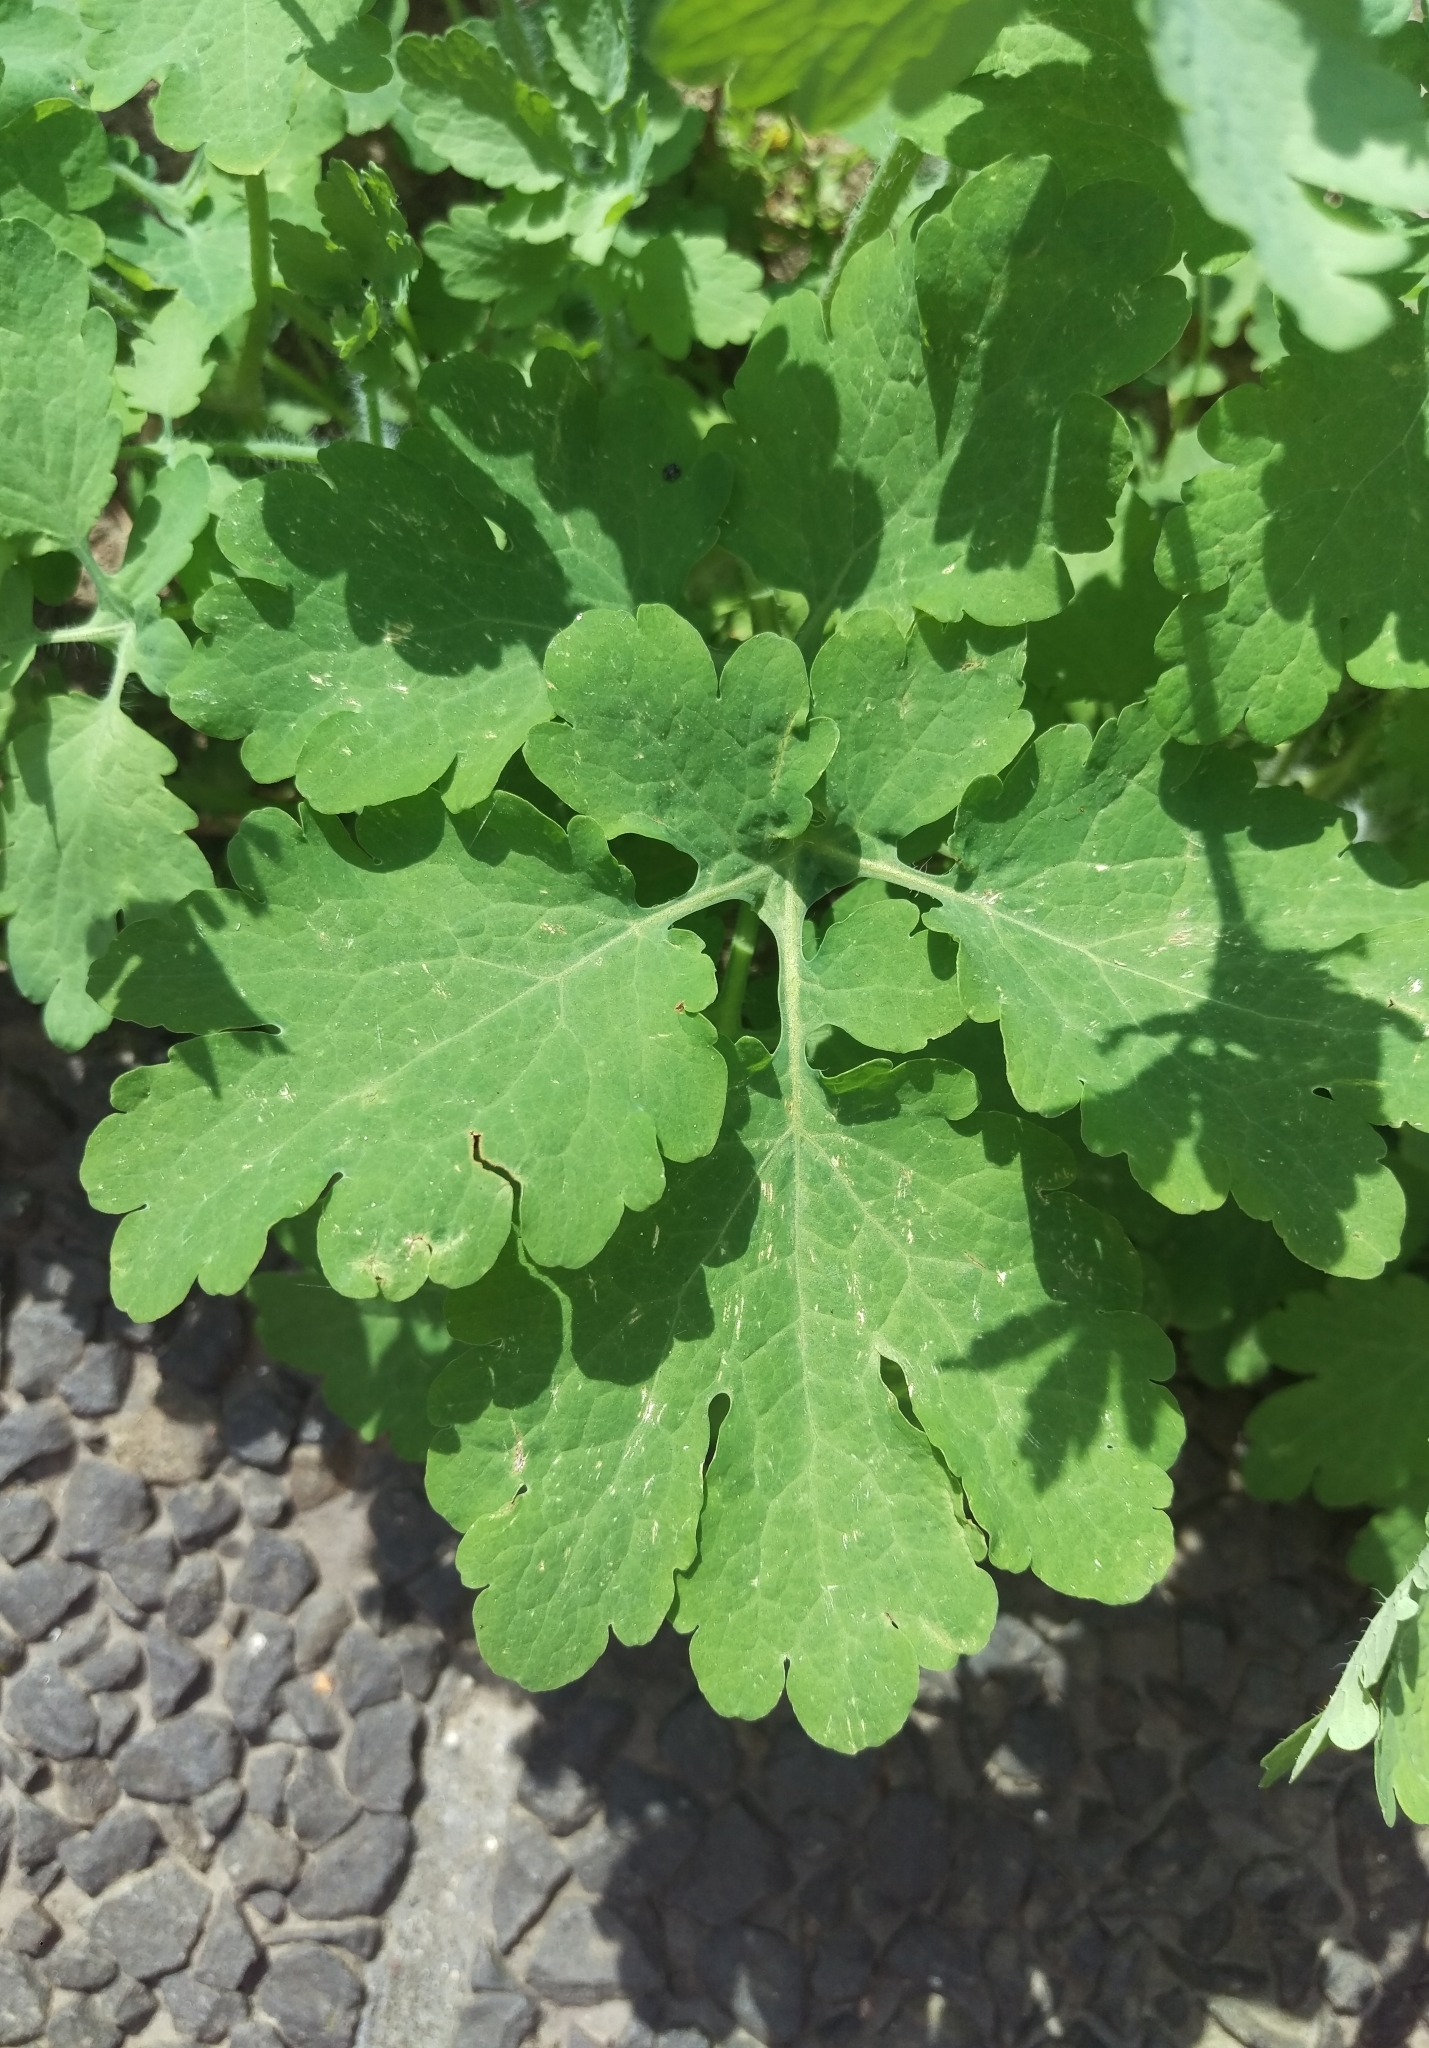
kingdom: Plantae
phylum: Tracheophyta
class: Magnoliopsida
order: Ranunculales
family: Papaveraceae
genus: Chelidonium
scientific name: Chelidonium majus
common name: Greater celandine
